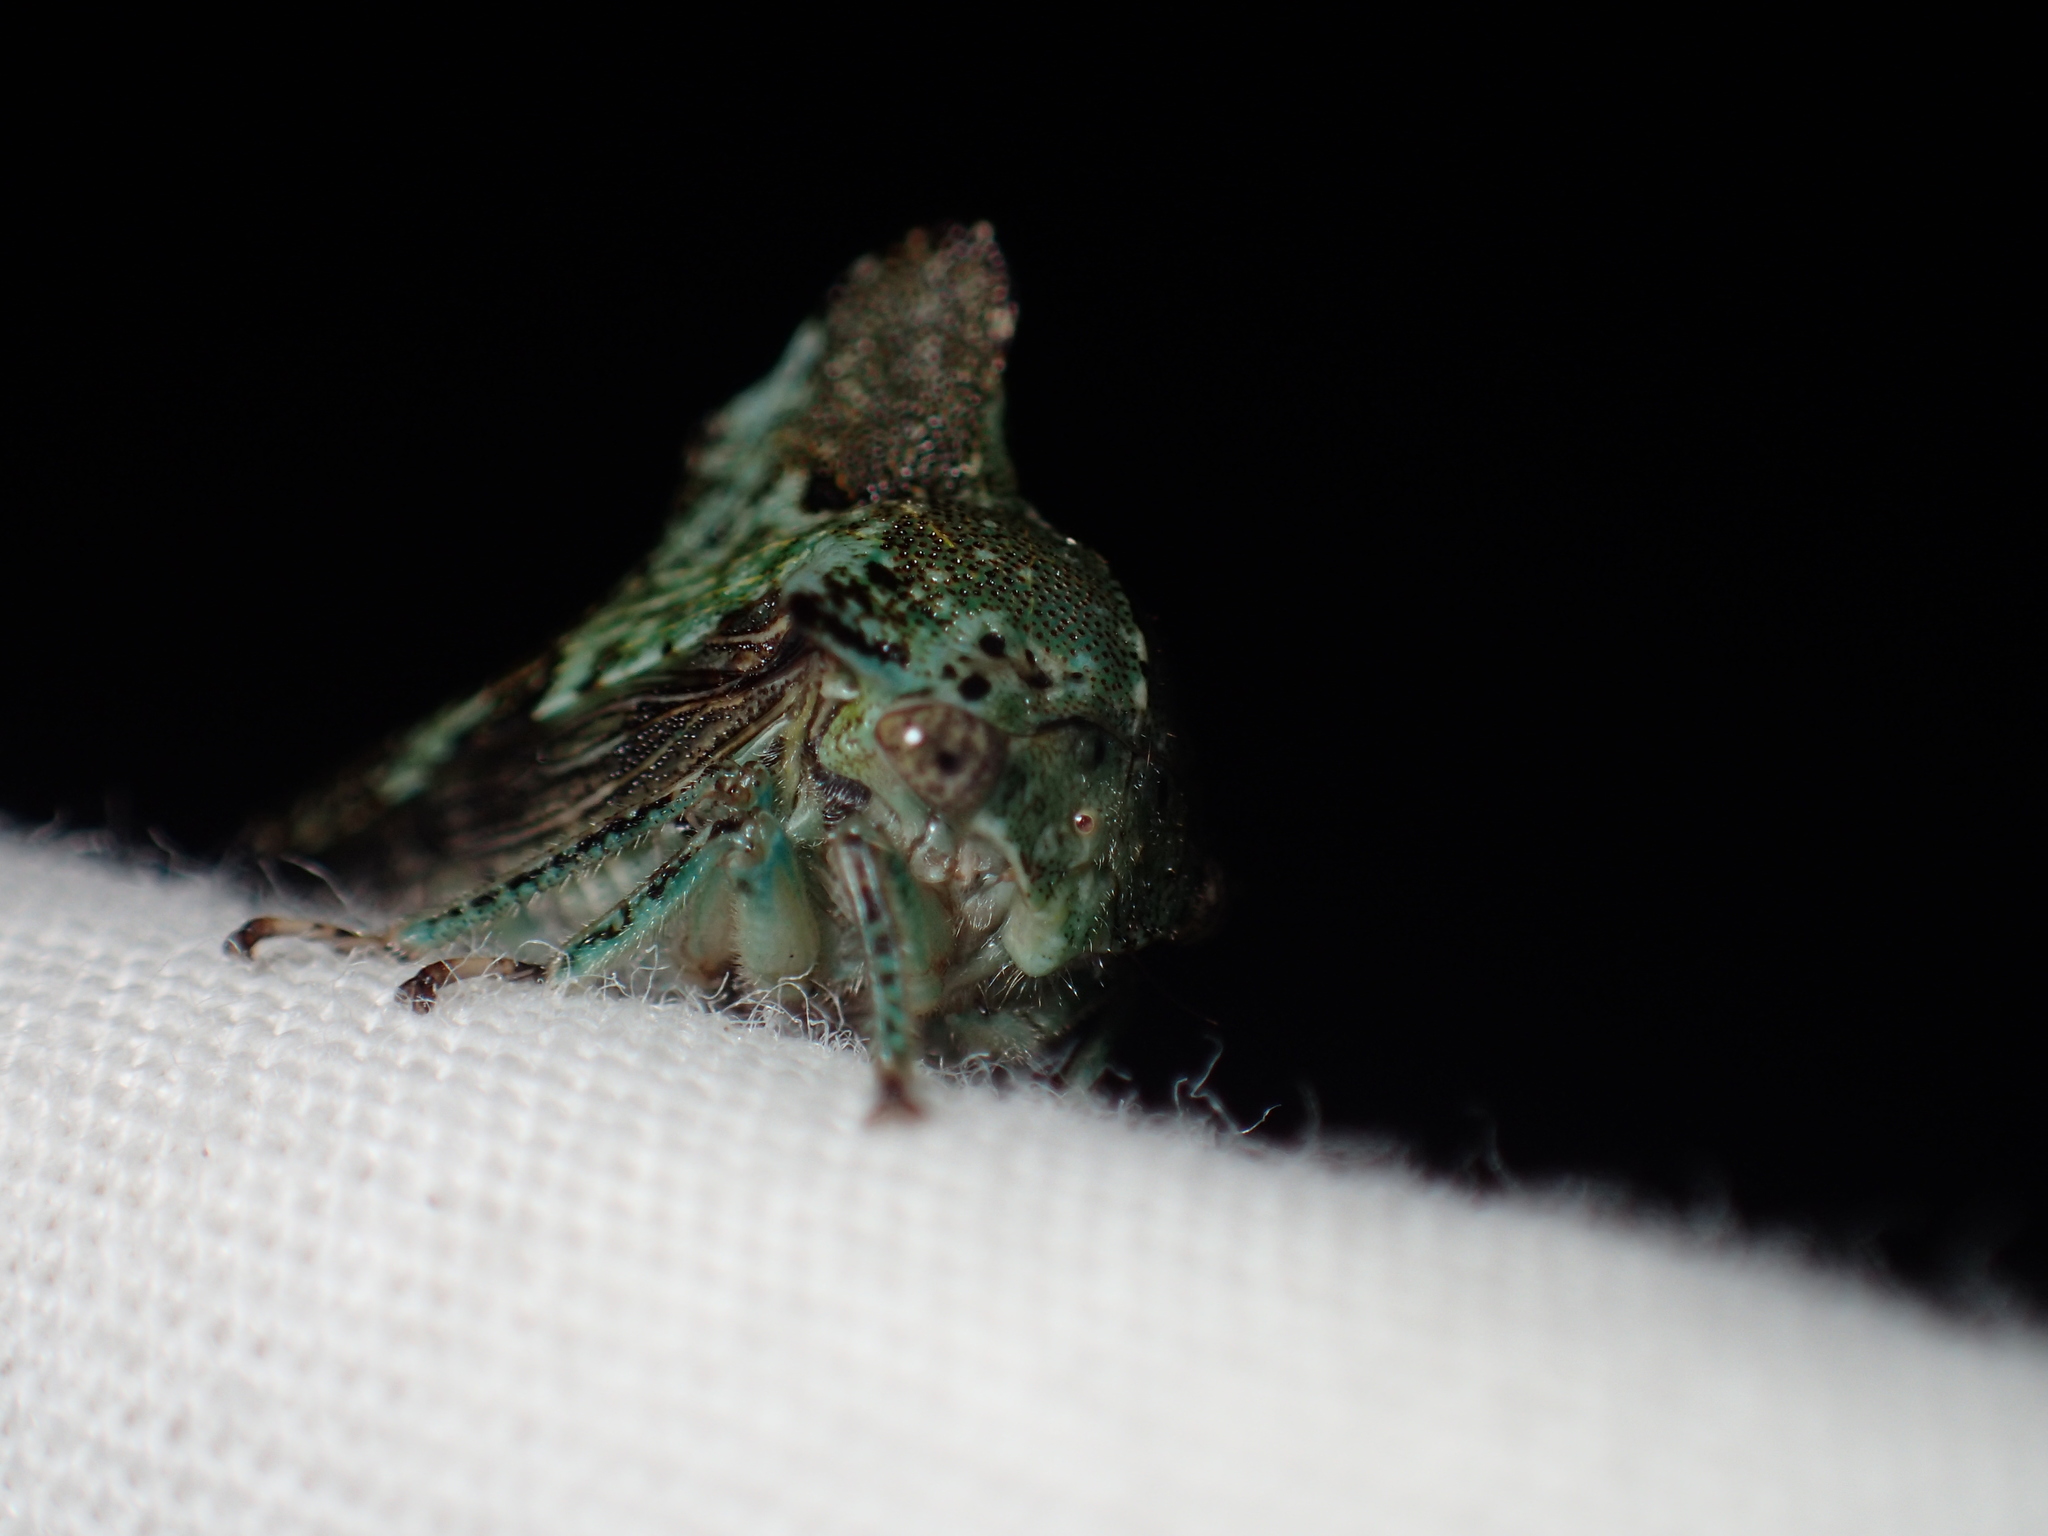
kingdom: Animalia
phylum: Arthropoda
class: Insecta
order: Hemiptera
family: Membracidae
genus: Telamona
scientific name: Telamona concava
